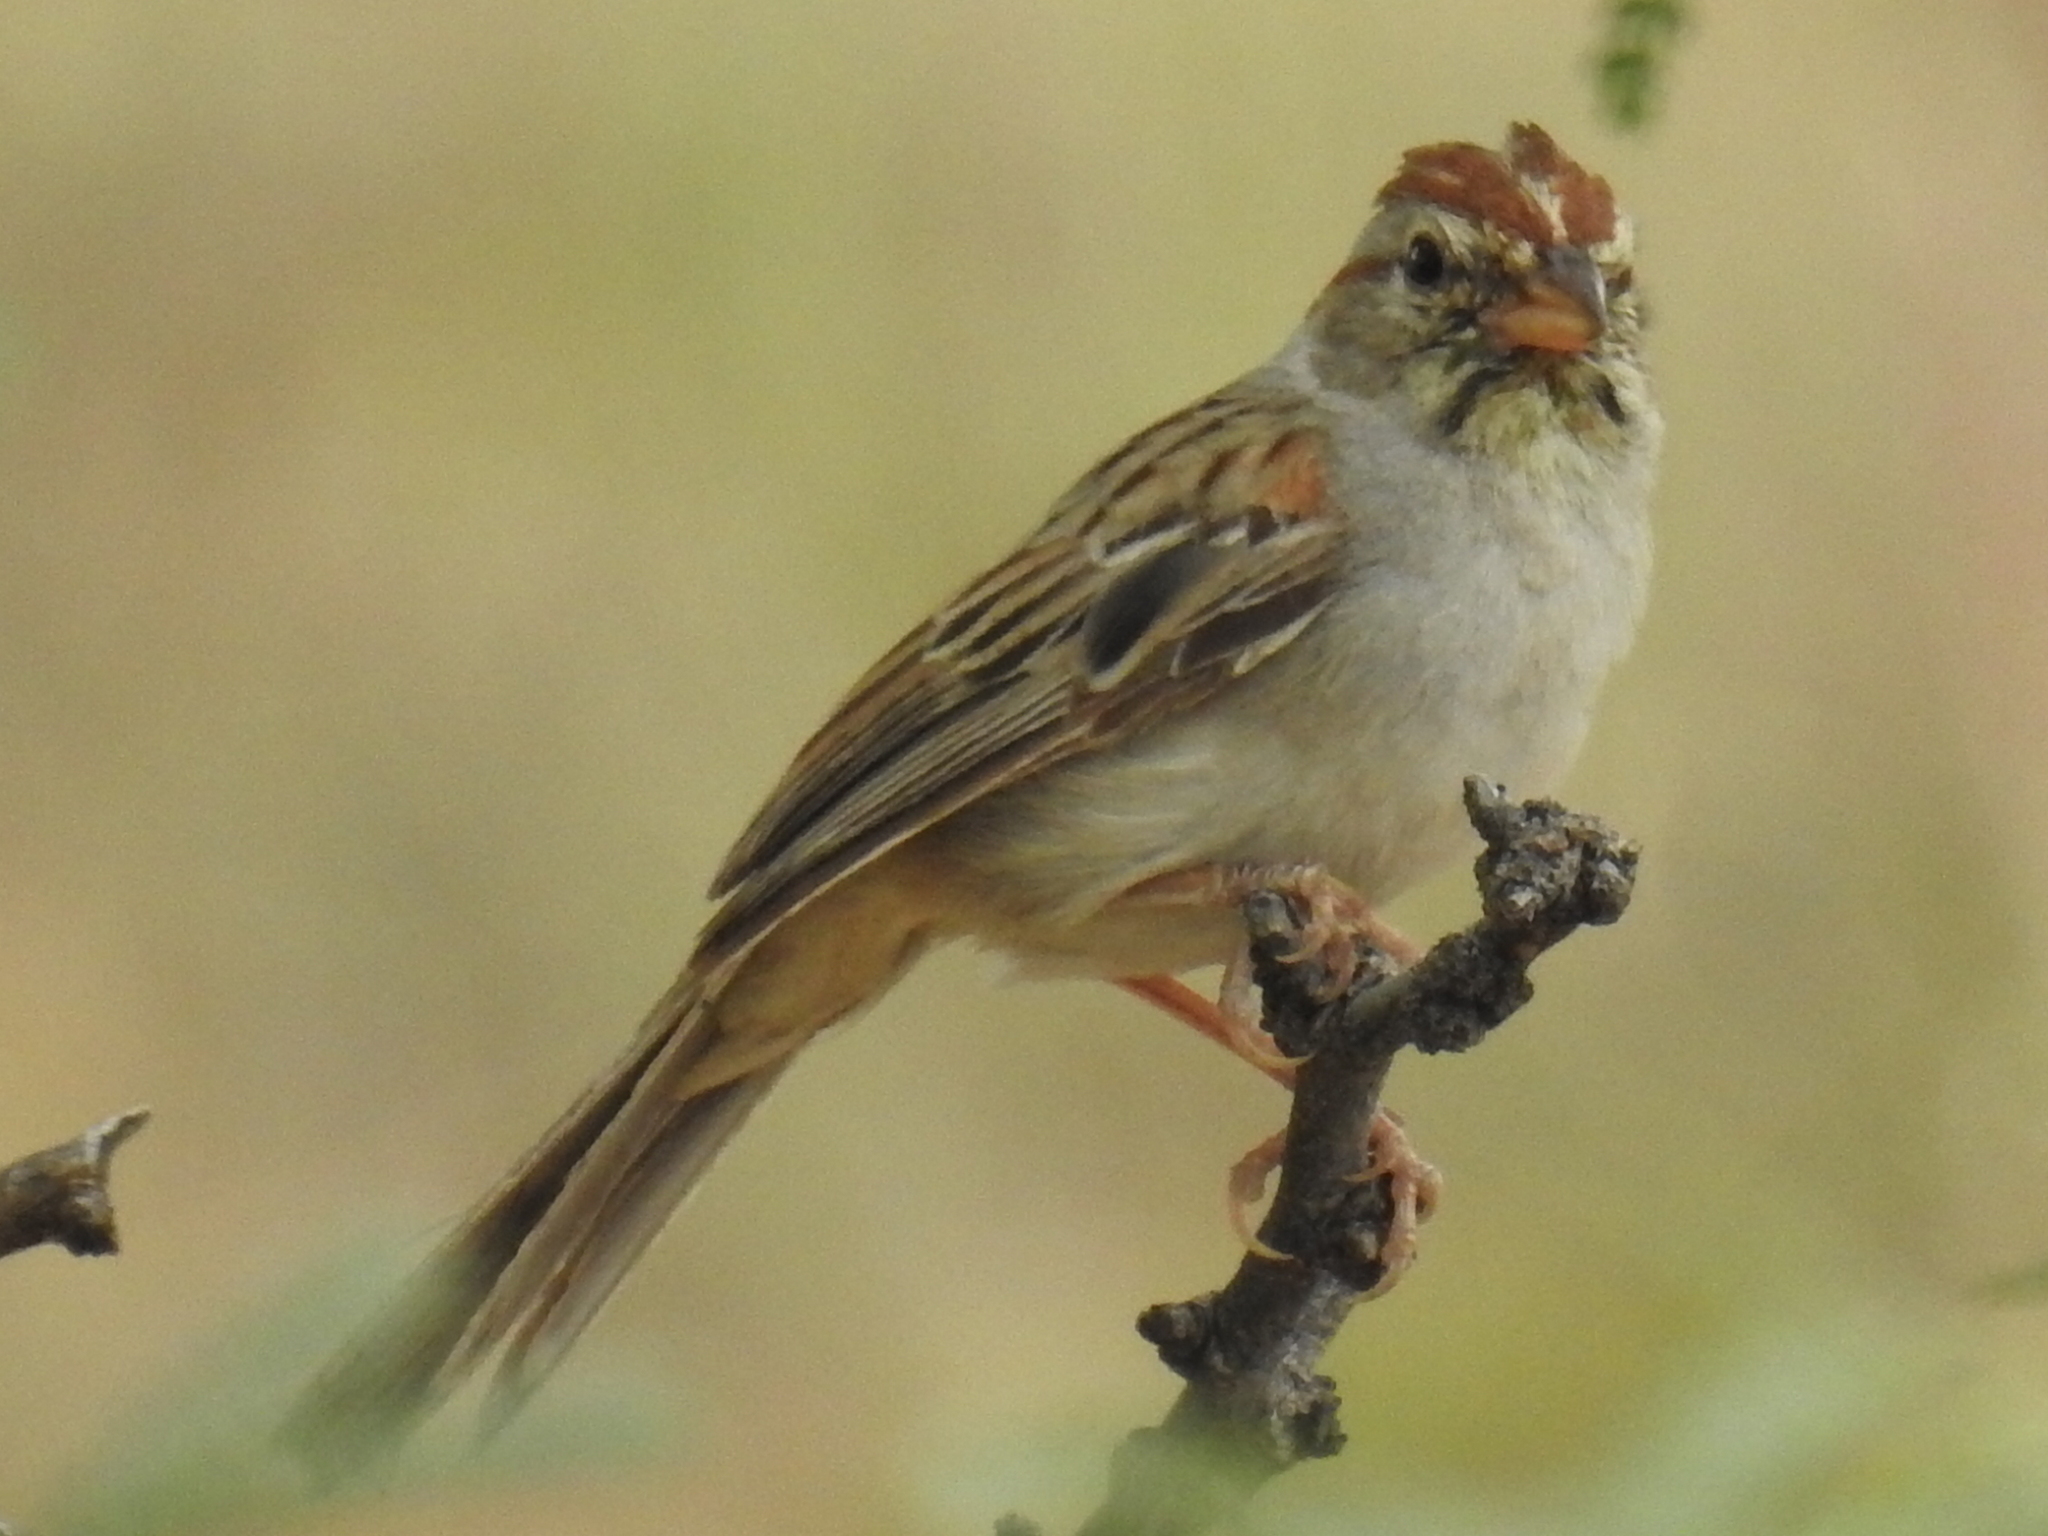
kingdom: Animalia
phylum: Chordata
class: Aves
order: Passeriformes
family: Passerellidae
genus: Peucaea
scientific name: Peucaea carpalis
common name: Rufous-winged sparrow
